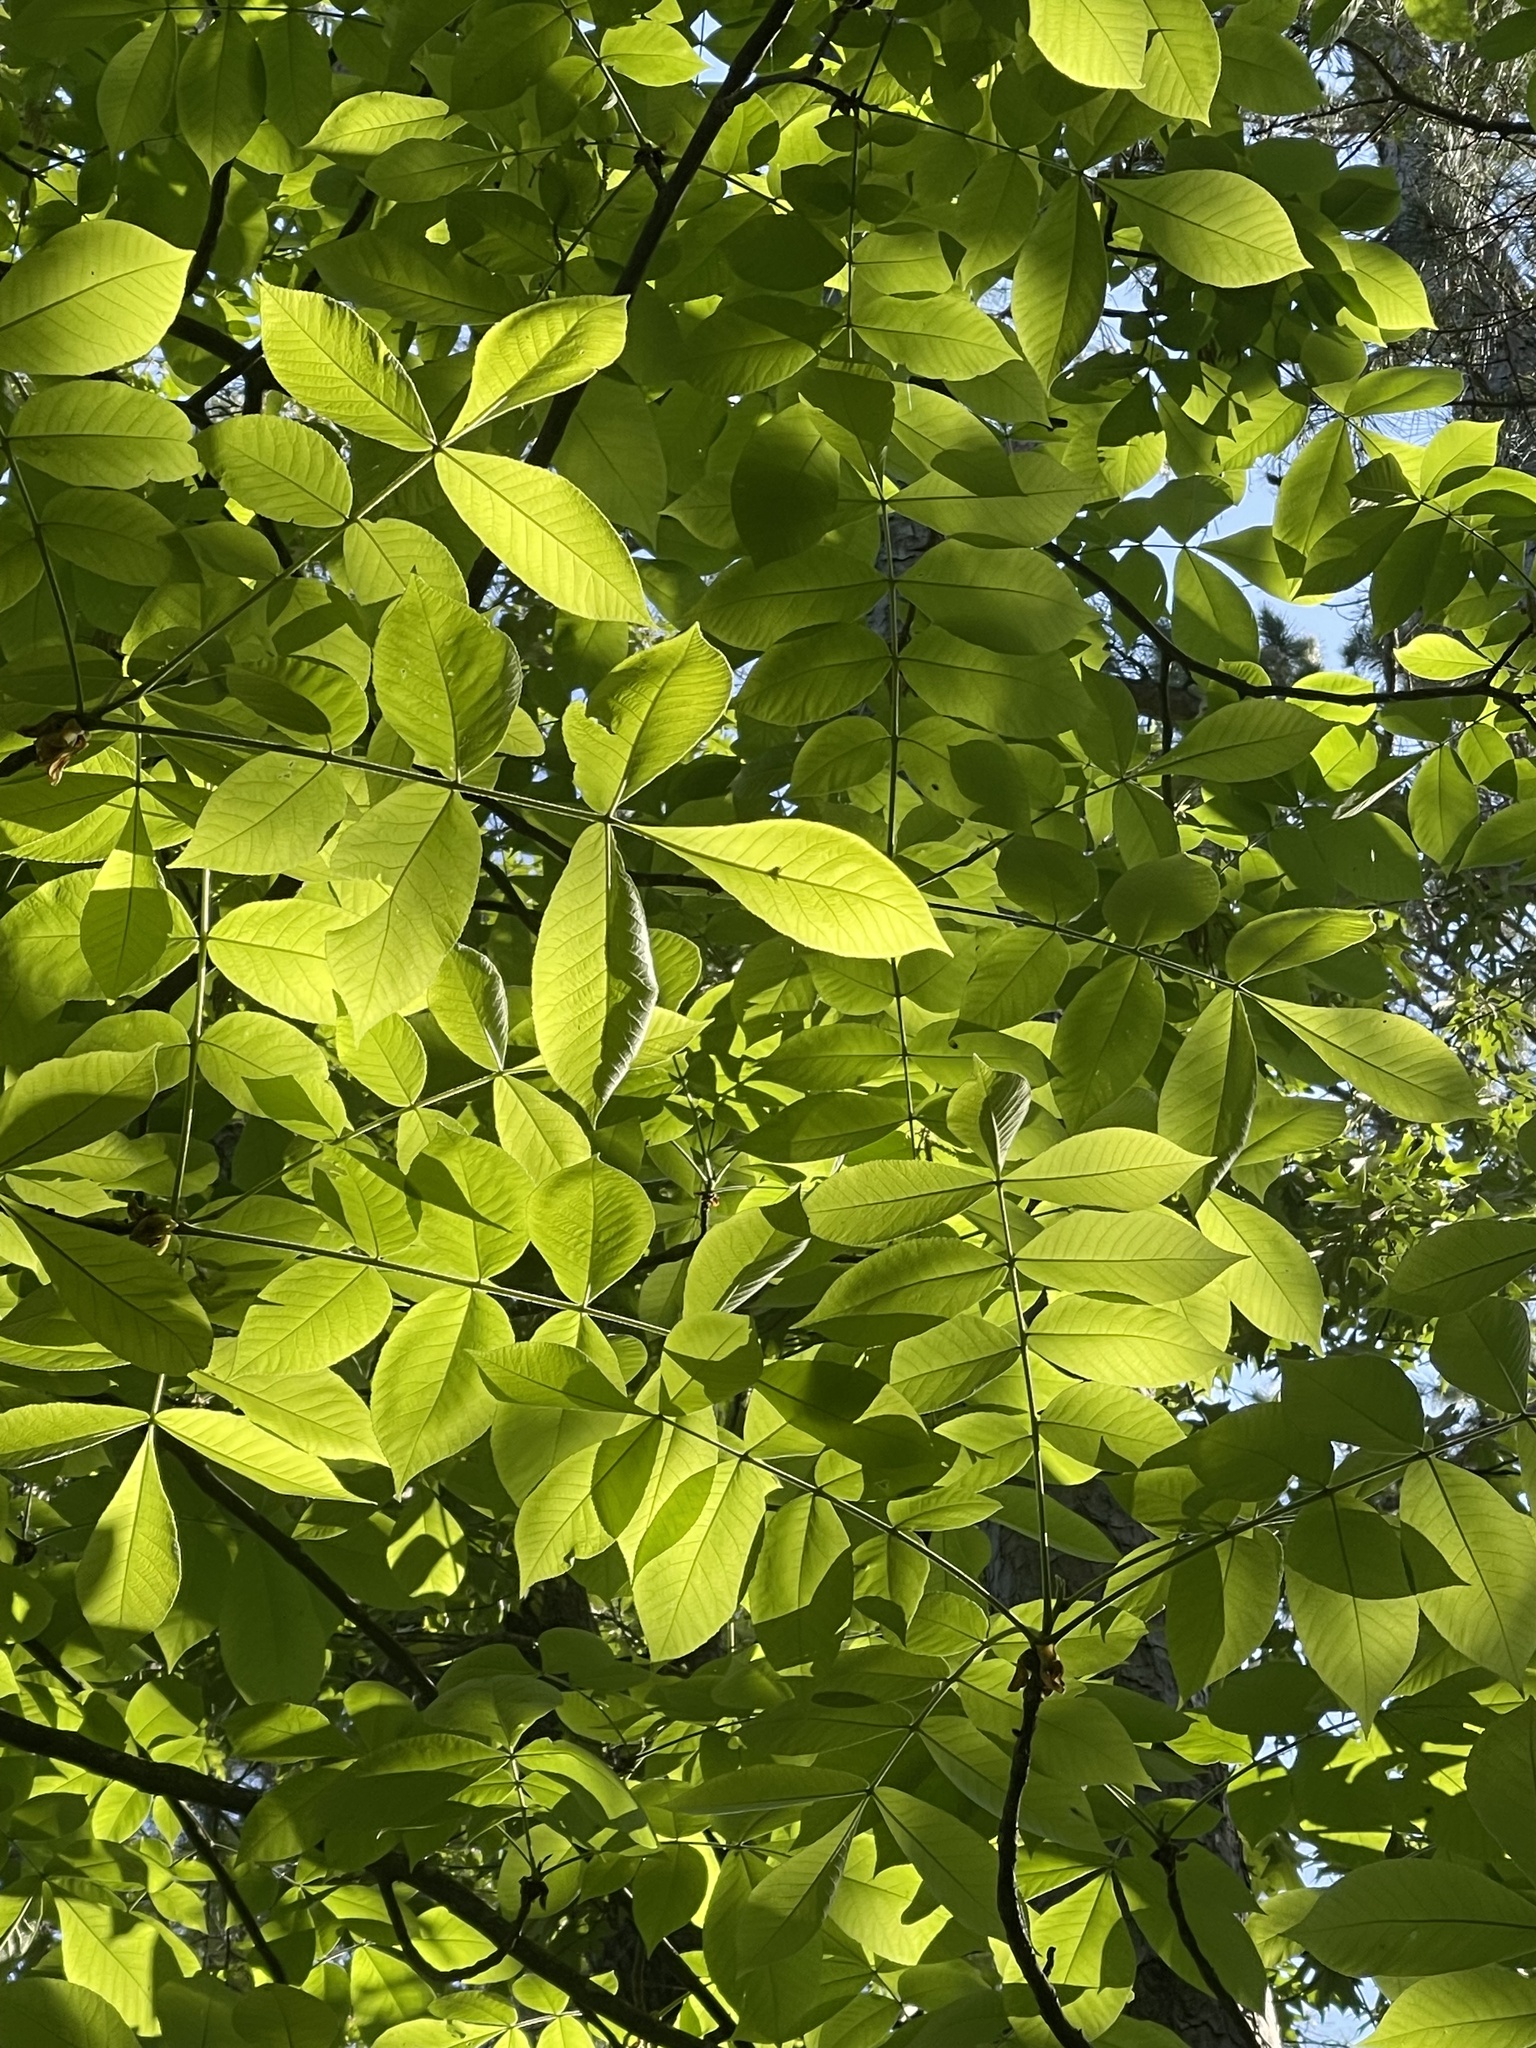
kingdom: Plantae
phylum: Tracheophyta
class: Magnoliopsida
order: Fagales
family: Juglandaceae
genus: Carya
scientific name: Carya texana
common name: Black hickory
